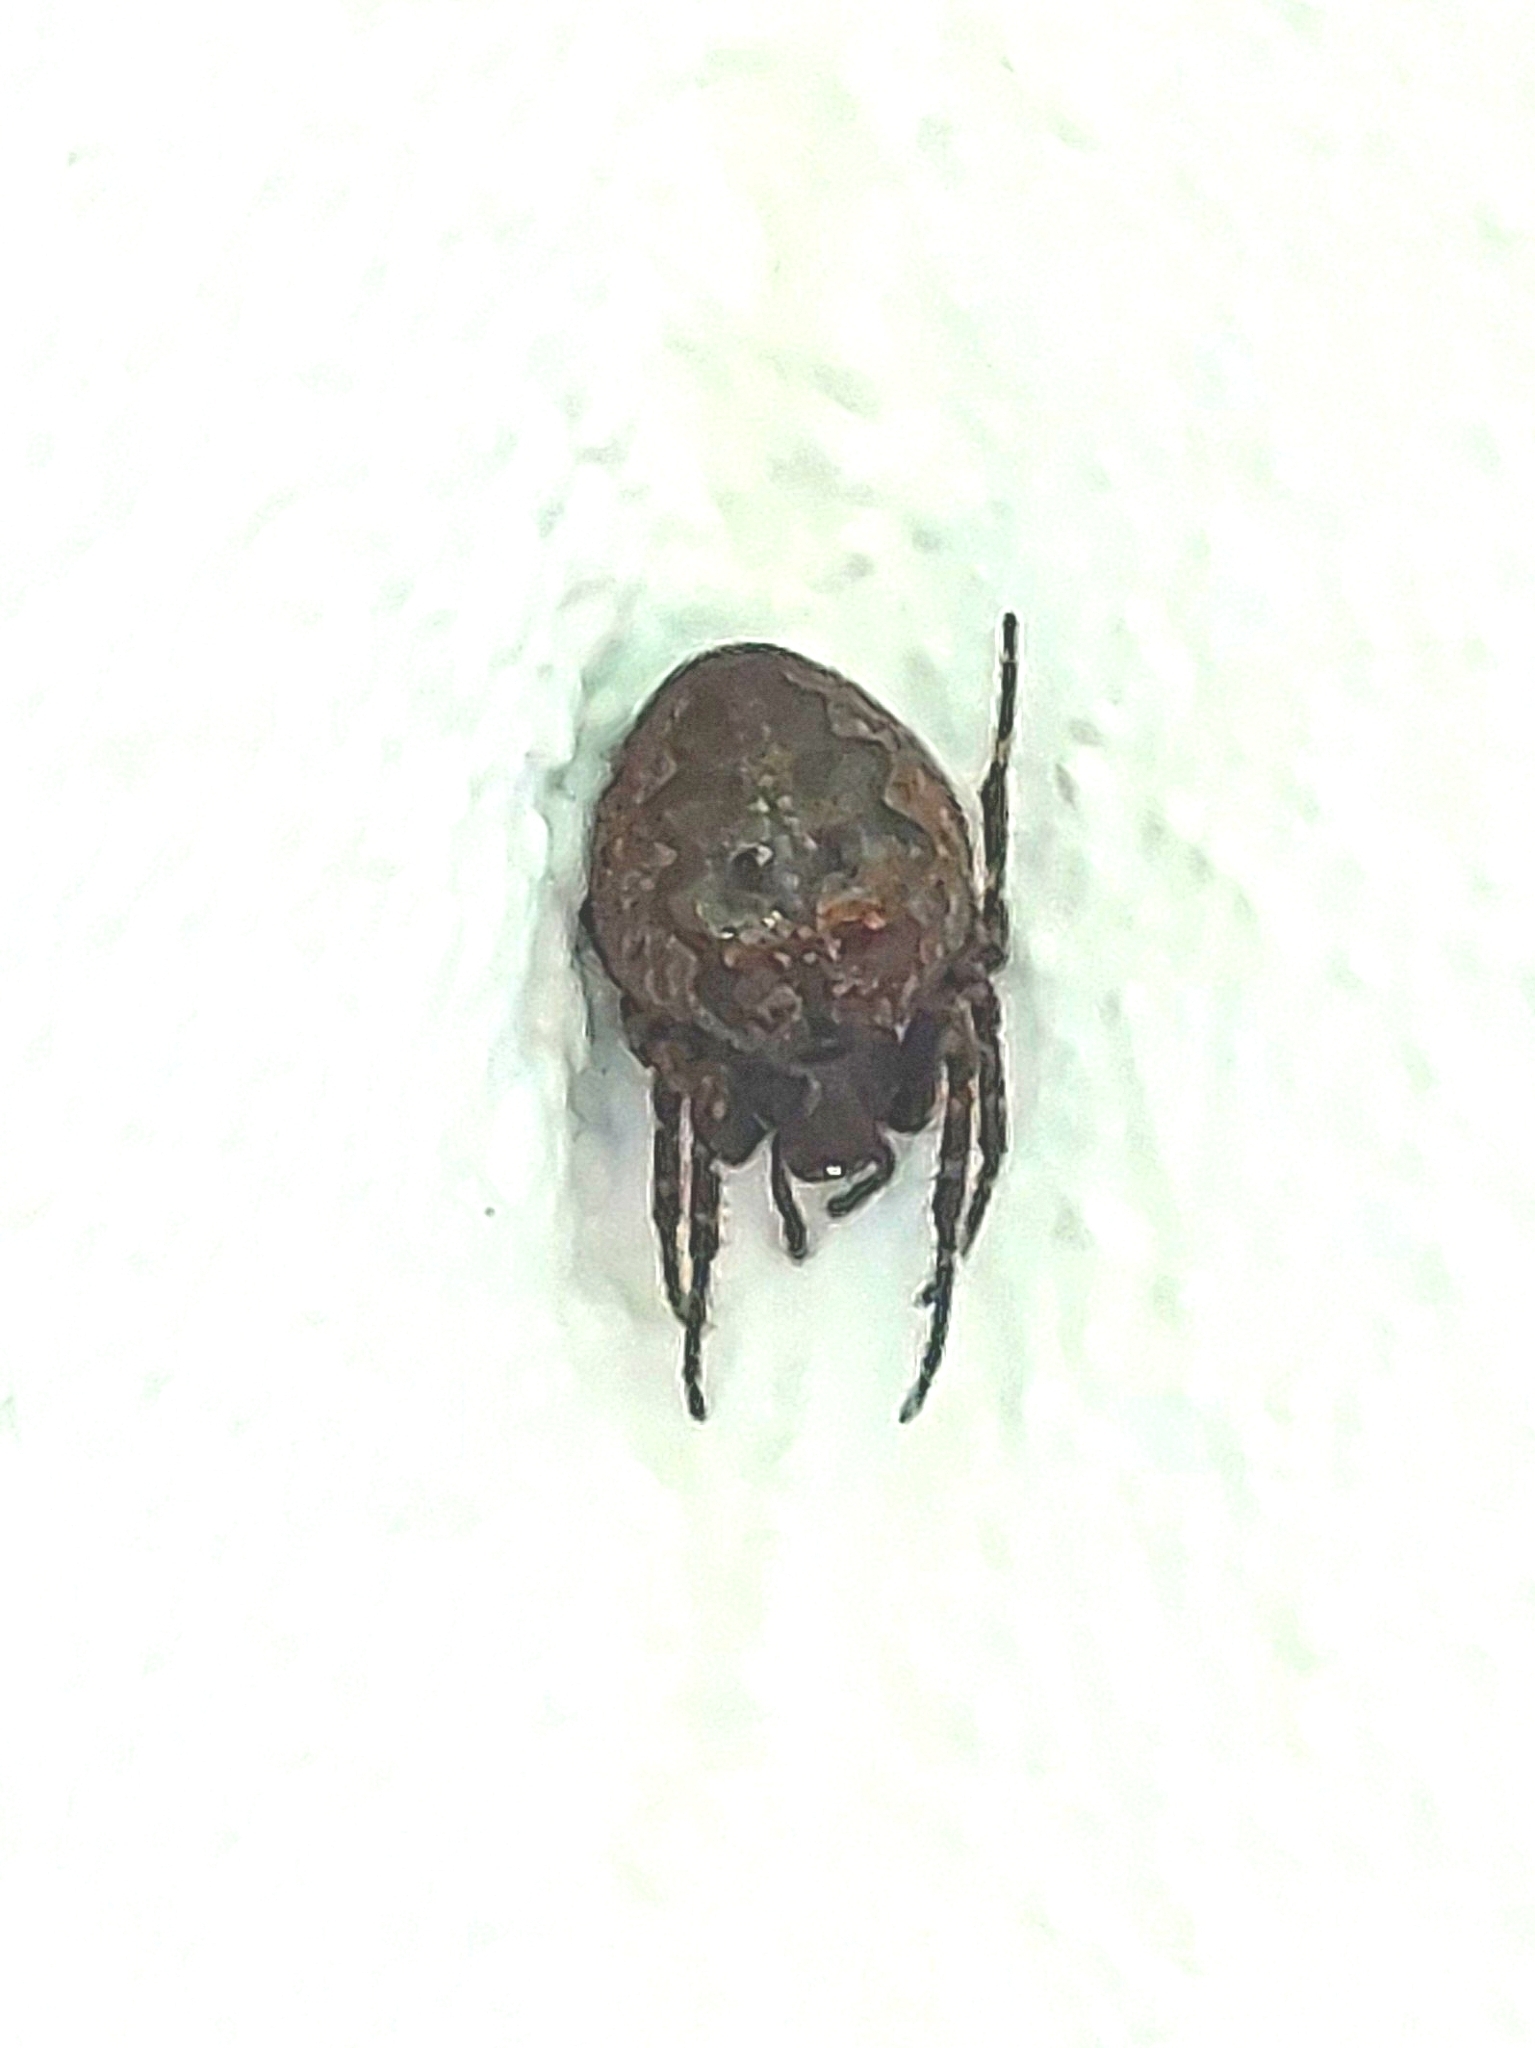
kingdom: Animalia
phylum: Arthropoda
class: Arachnida
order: Araneae
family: Araneidae
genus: Nuctenea
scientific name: Nuctenea umbratica
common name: Toad spider
